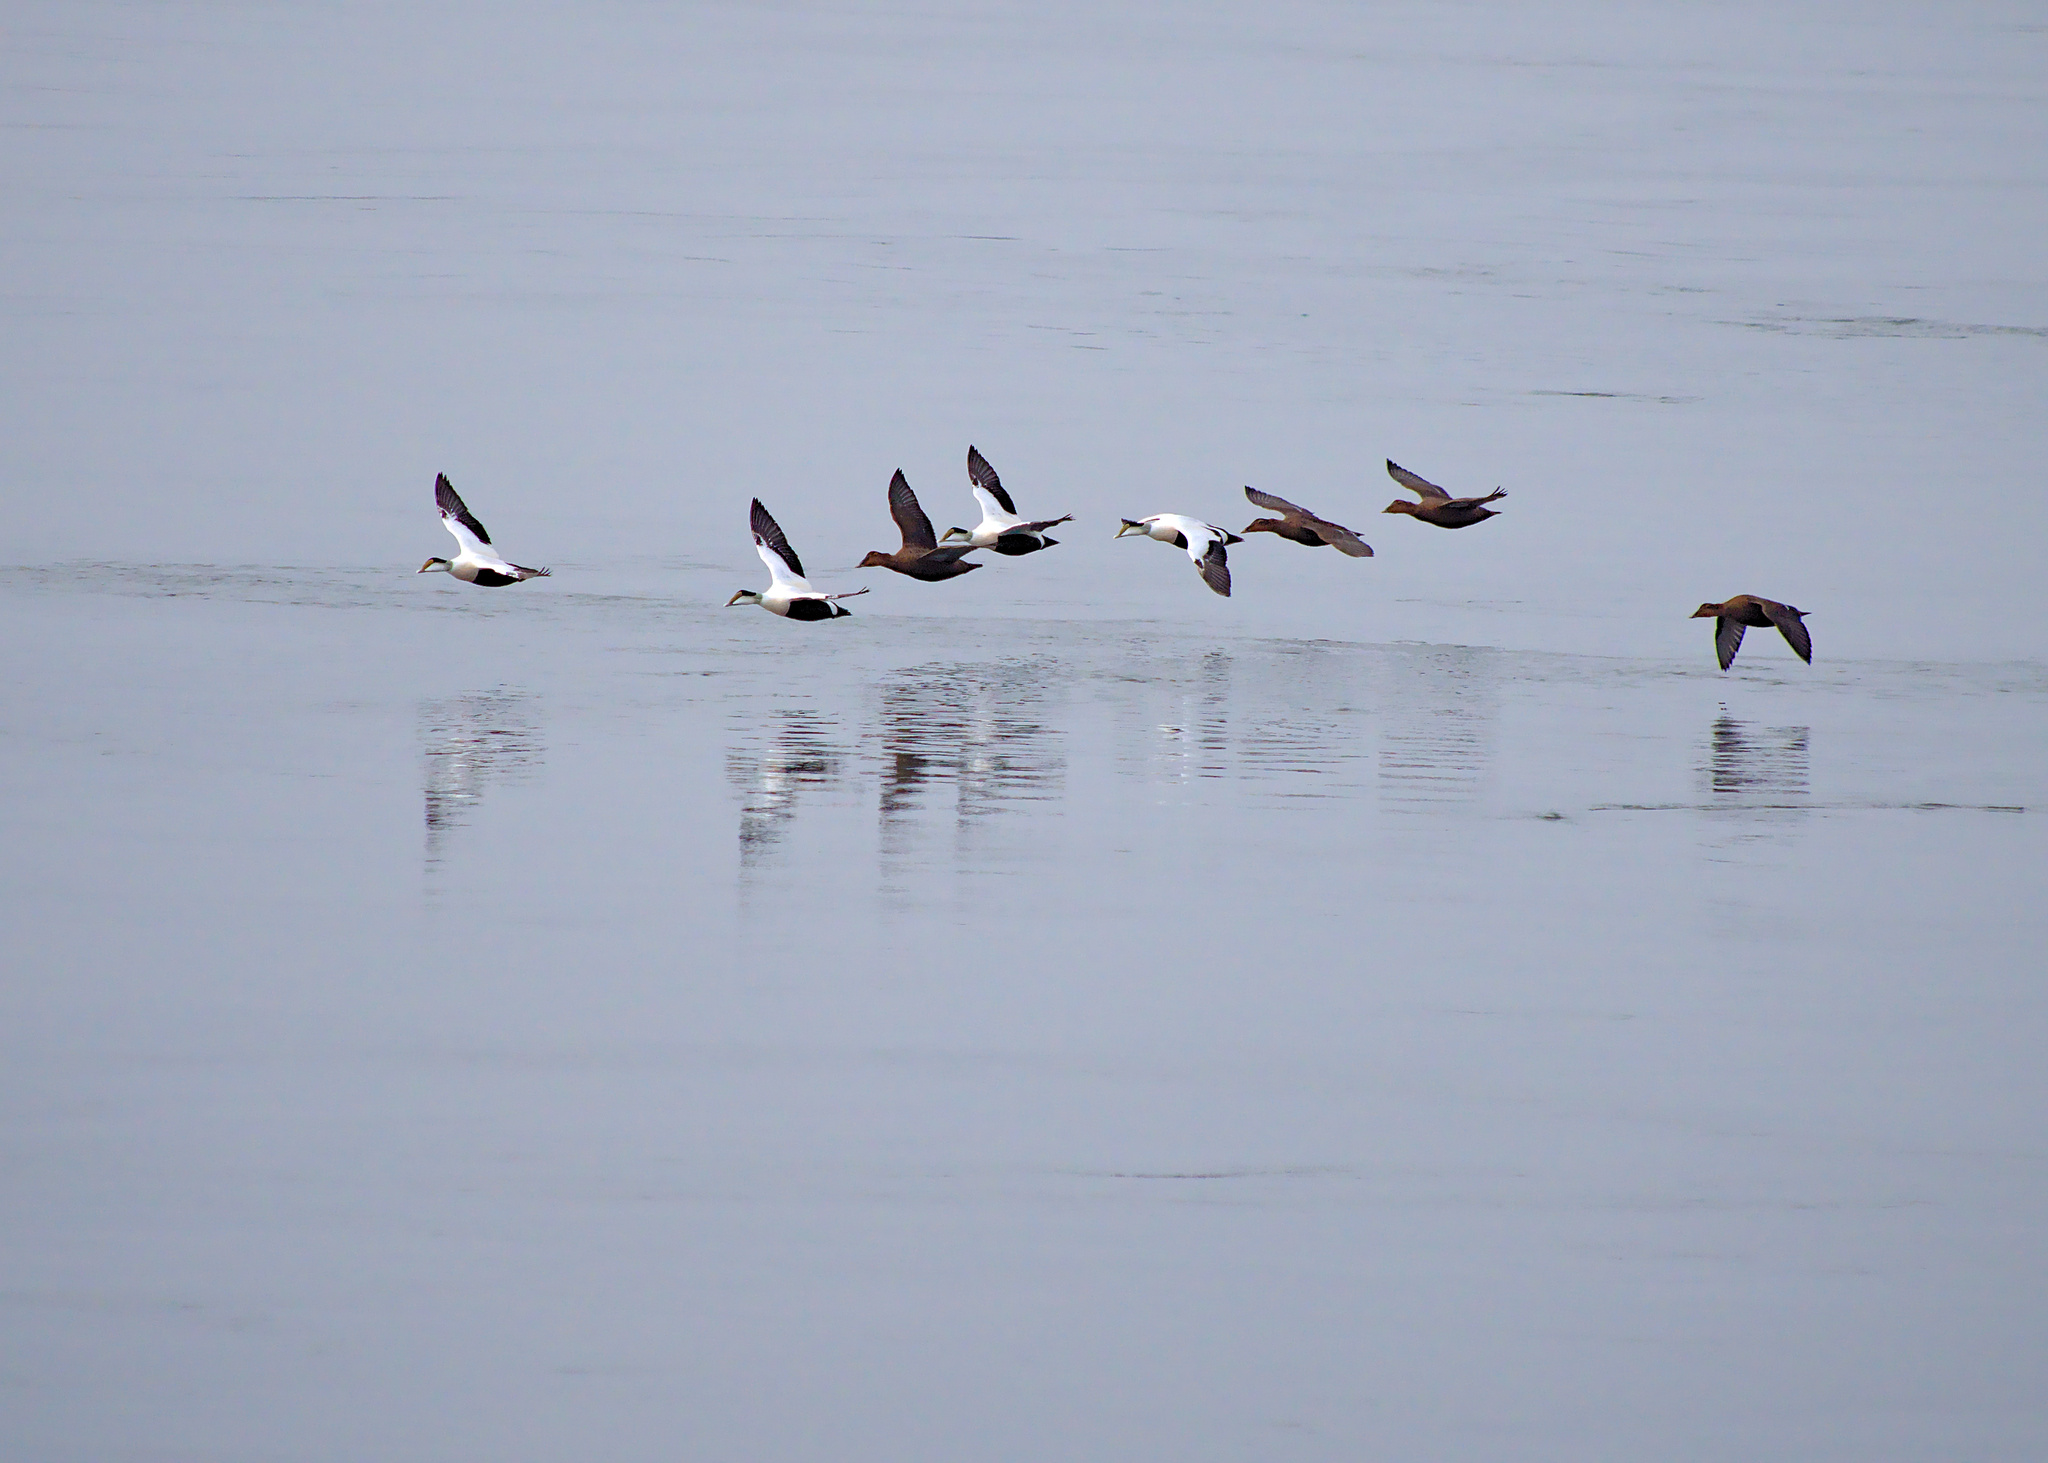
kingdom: Animalia
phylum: Chordata
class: Aves
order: Anseriformes
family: Anatidae
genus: Somateria
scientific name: Somateria mollissima
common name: Common eider
